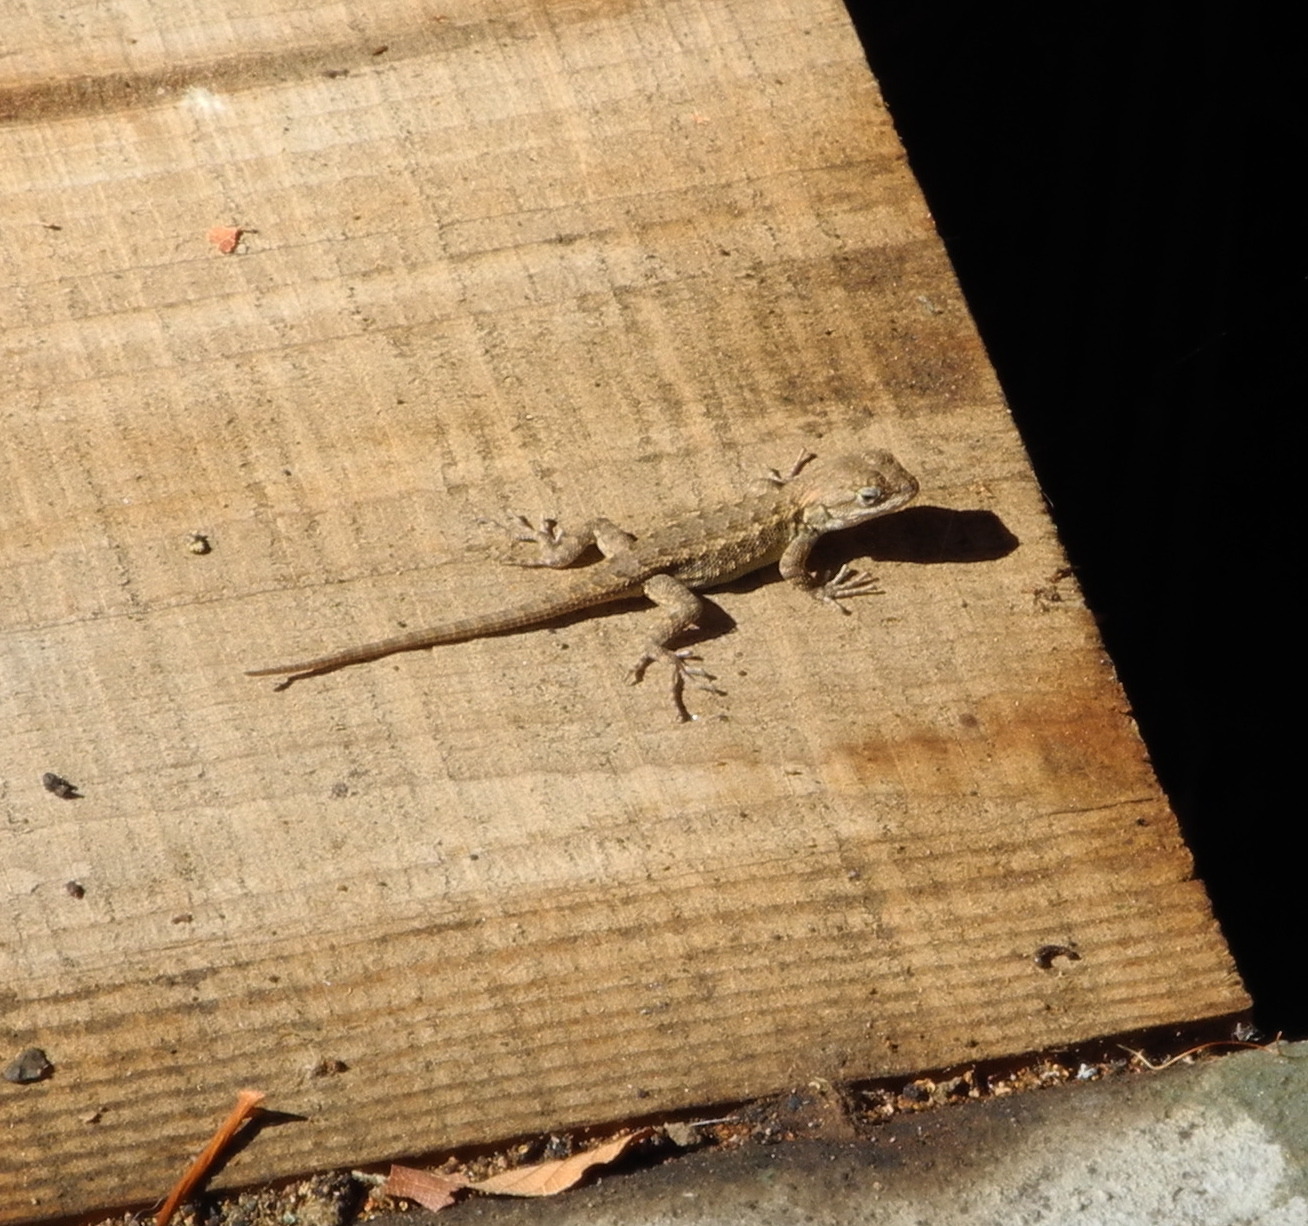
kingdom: Animalia
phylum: Chordata
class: Squamata
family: Phrynosomatidae
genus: Sceloporus
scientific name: Sceloporus occidentalis
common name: Western fence lizard
